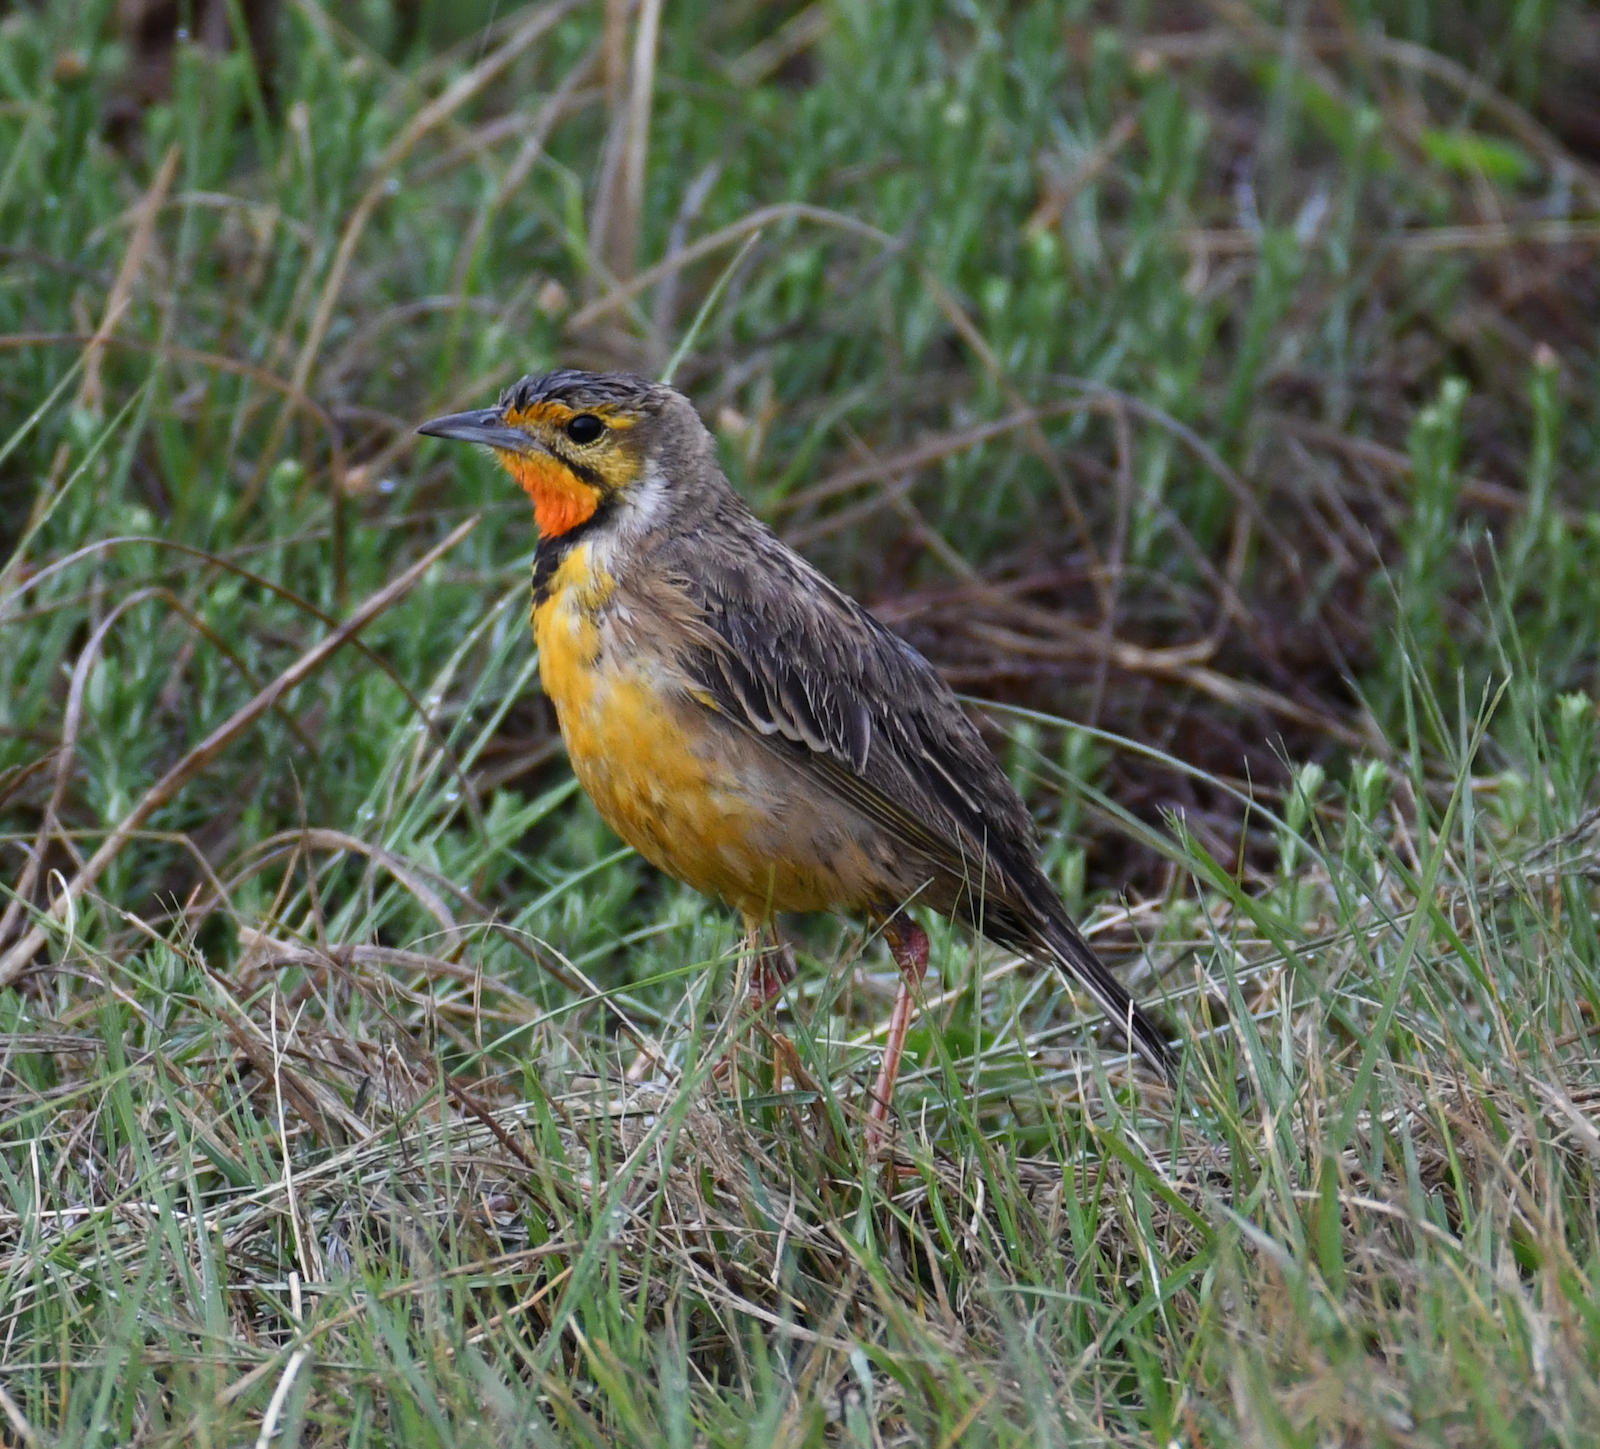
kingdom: Animalia
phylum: Chordata
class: Aves
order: Passeriformes
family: Motacillidae
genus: Macronyx
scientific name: Macronyx capensis
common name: Cape longclaw
